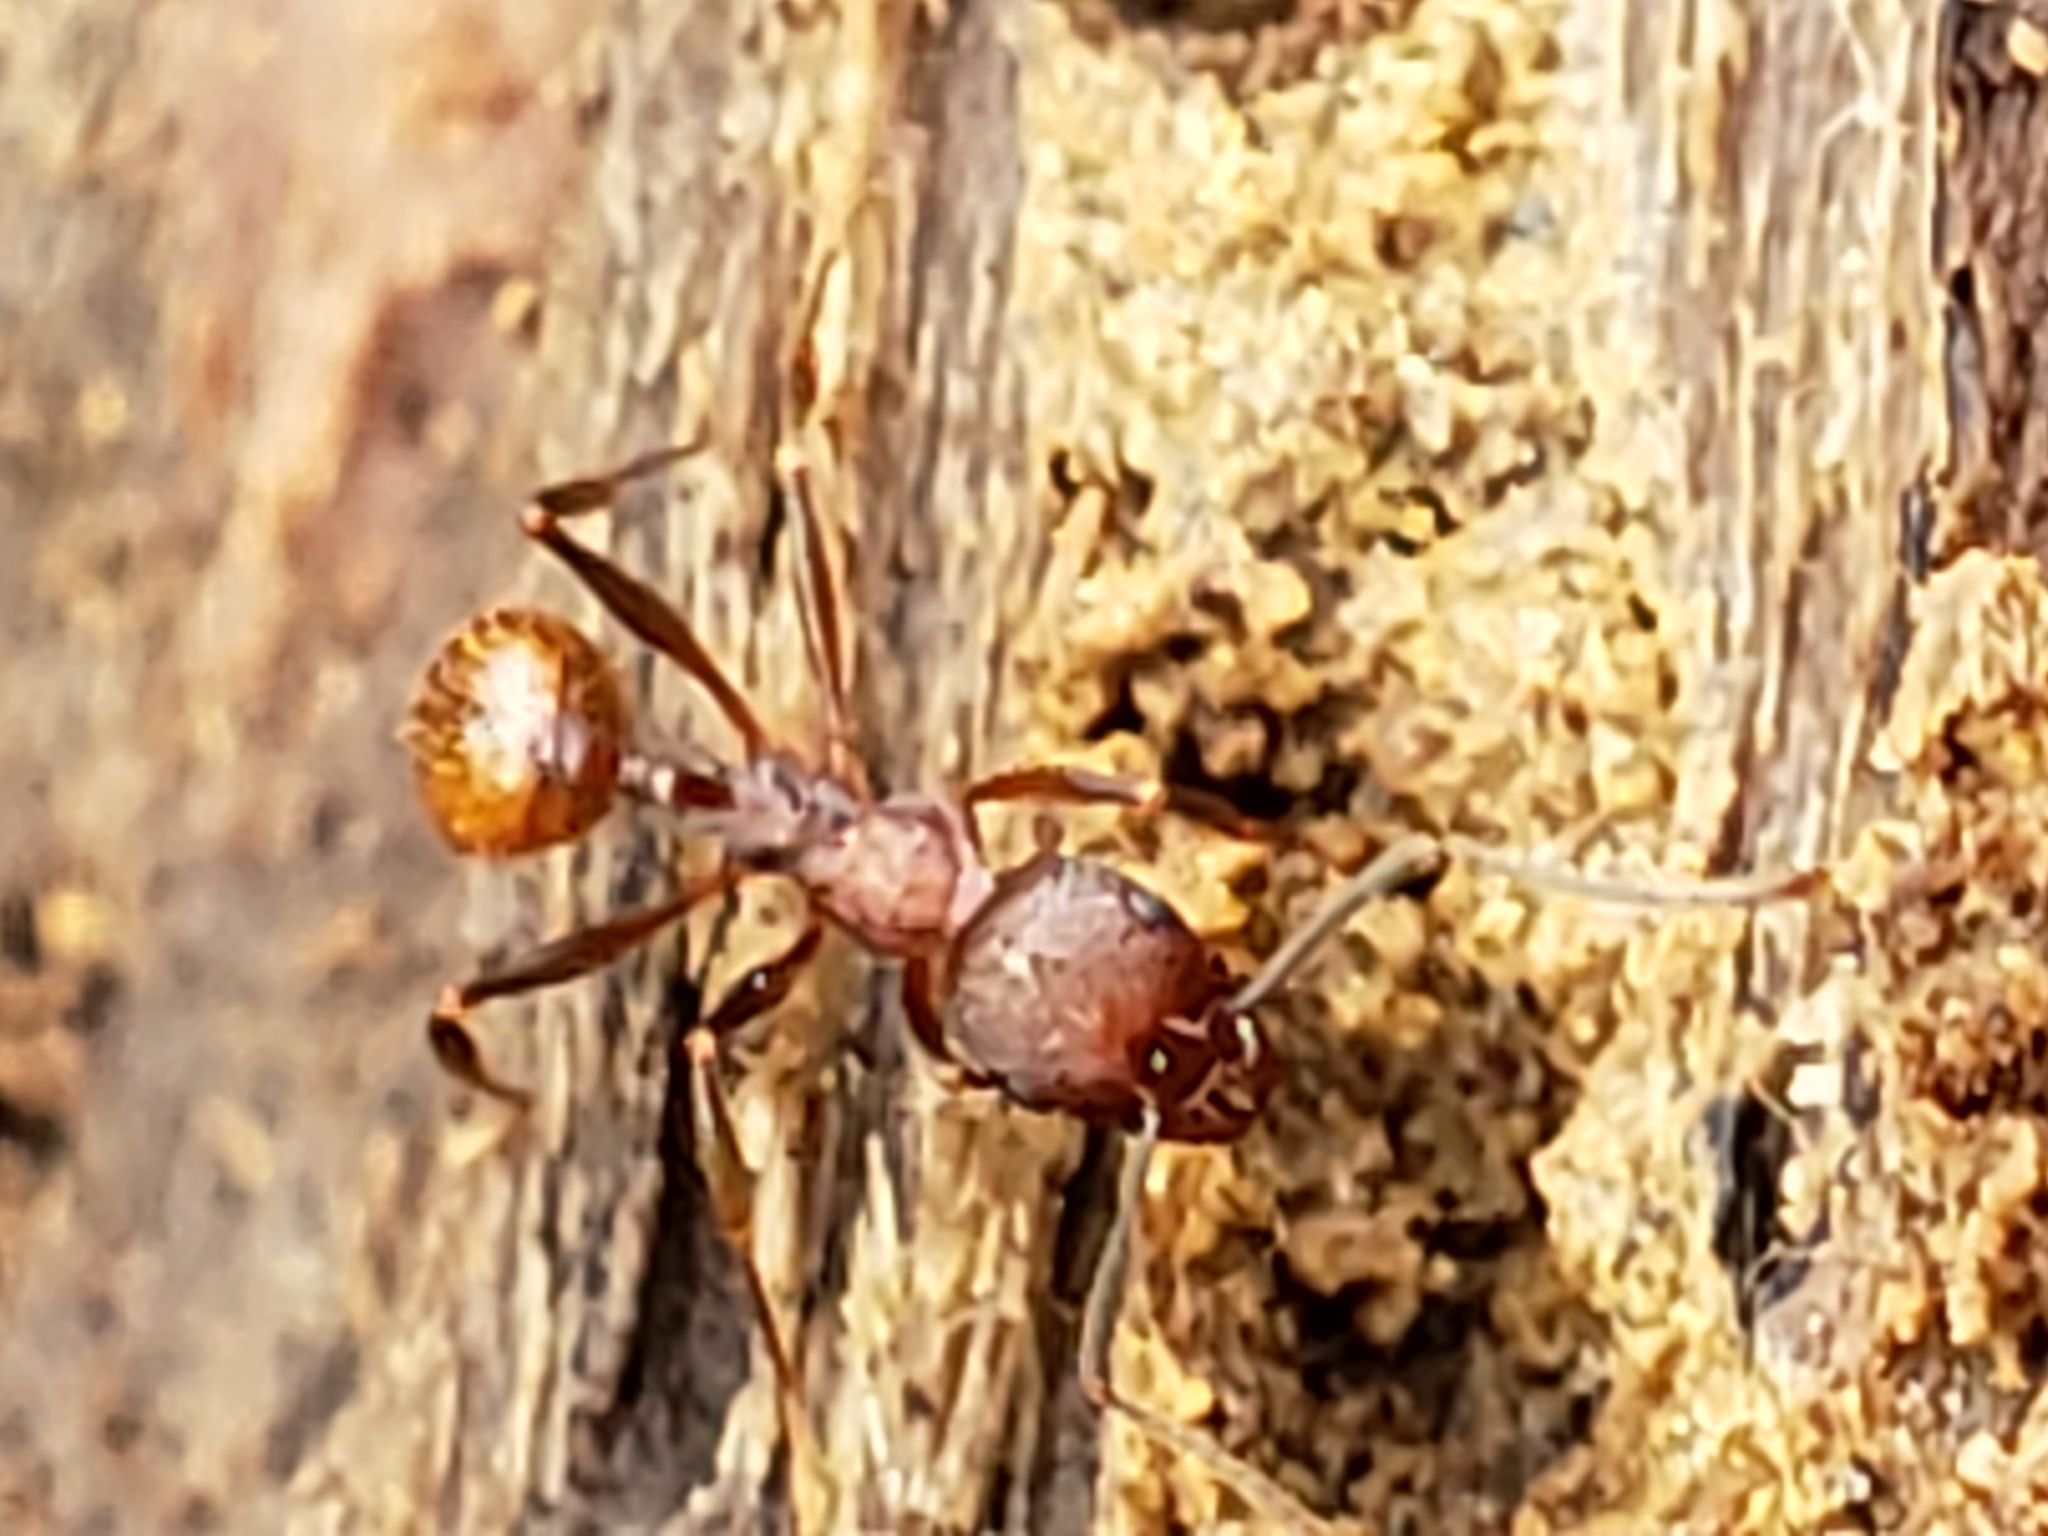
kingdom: Animalia
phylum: Arthropoda
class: Insecta
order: Hymenoptera
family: Formicidae
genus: Aphaenogaster
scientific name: Aphaenogaster fulva
